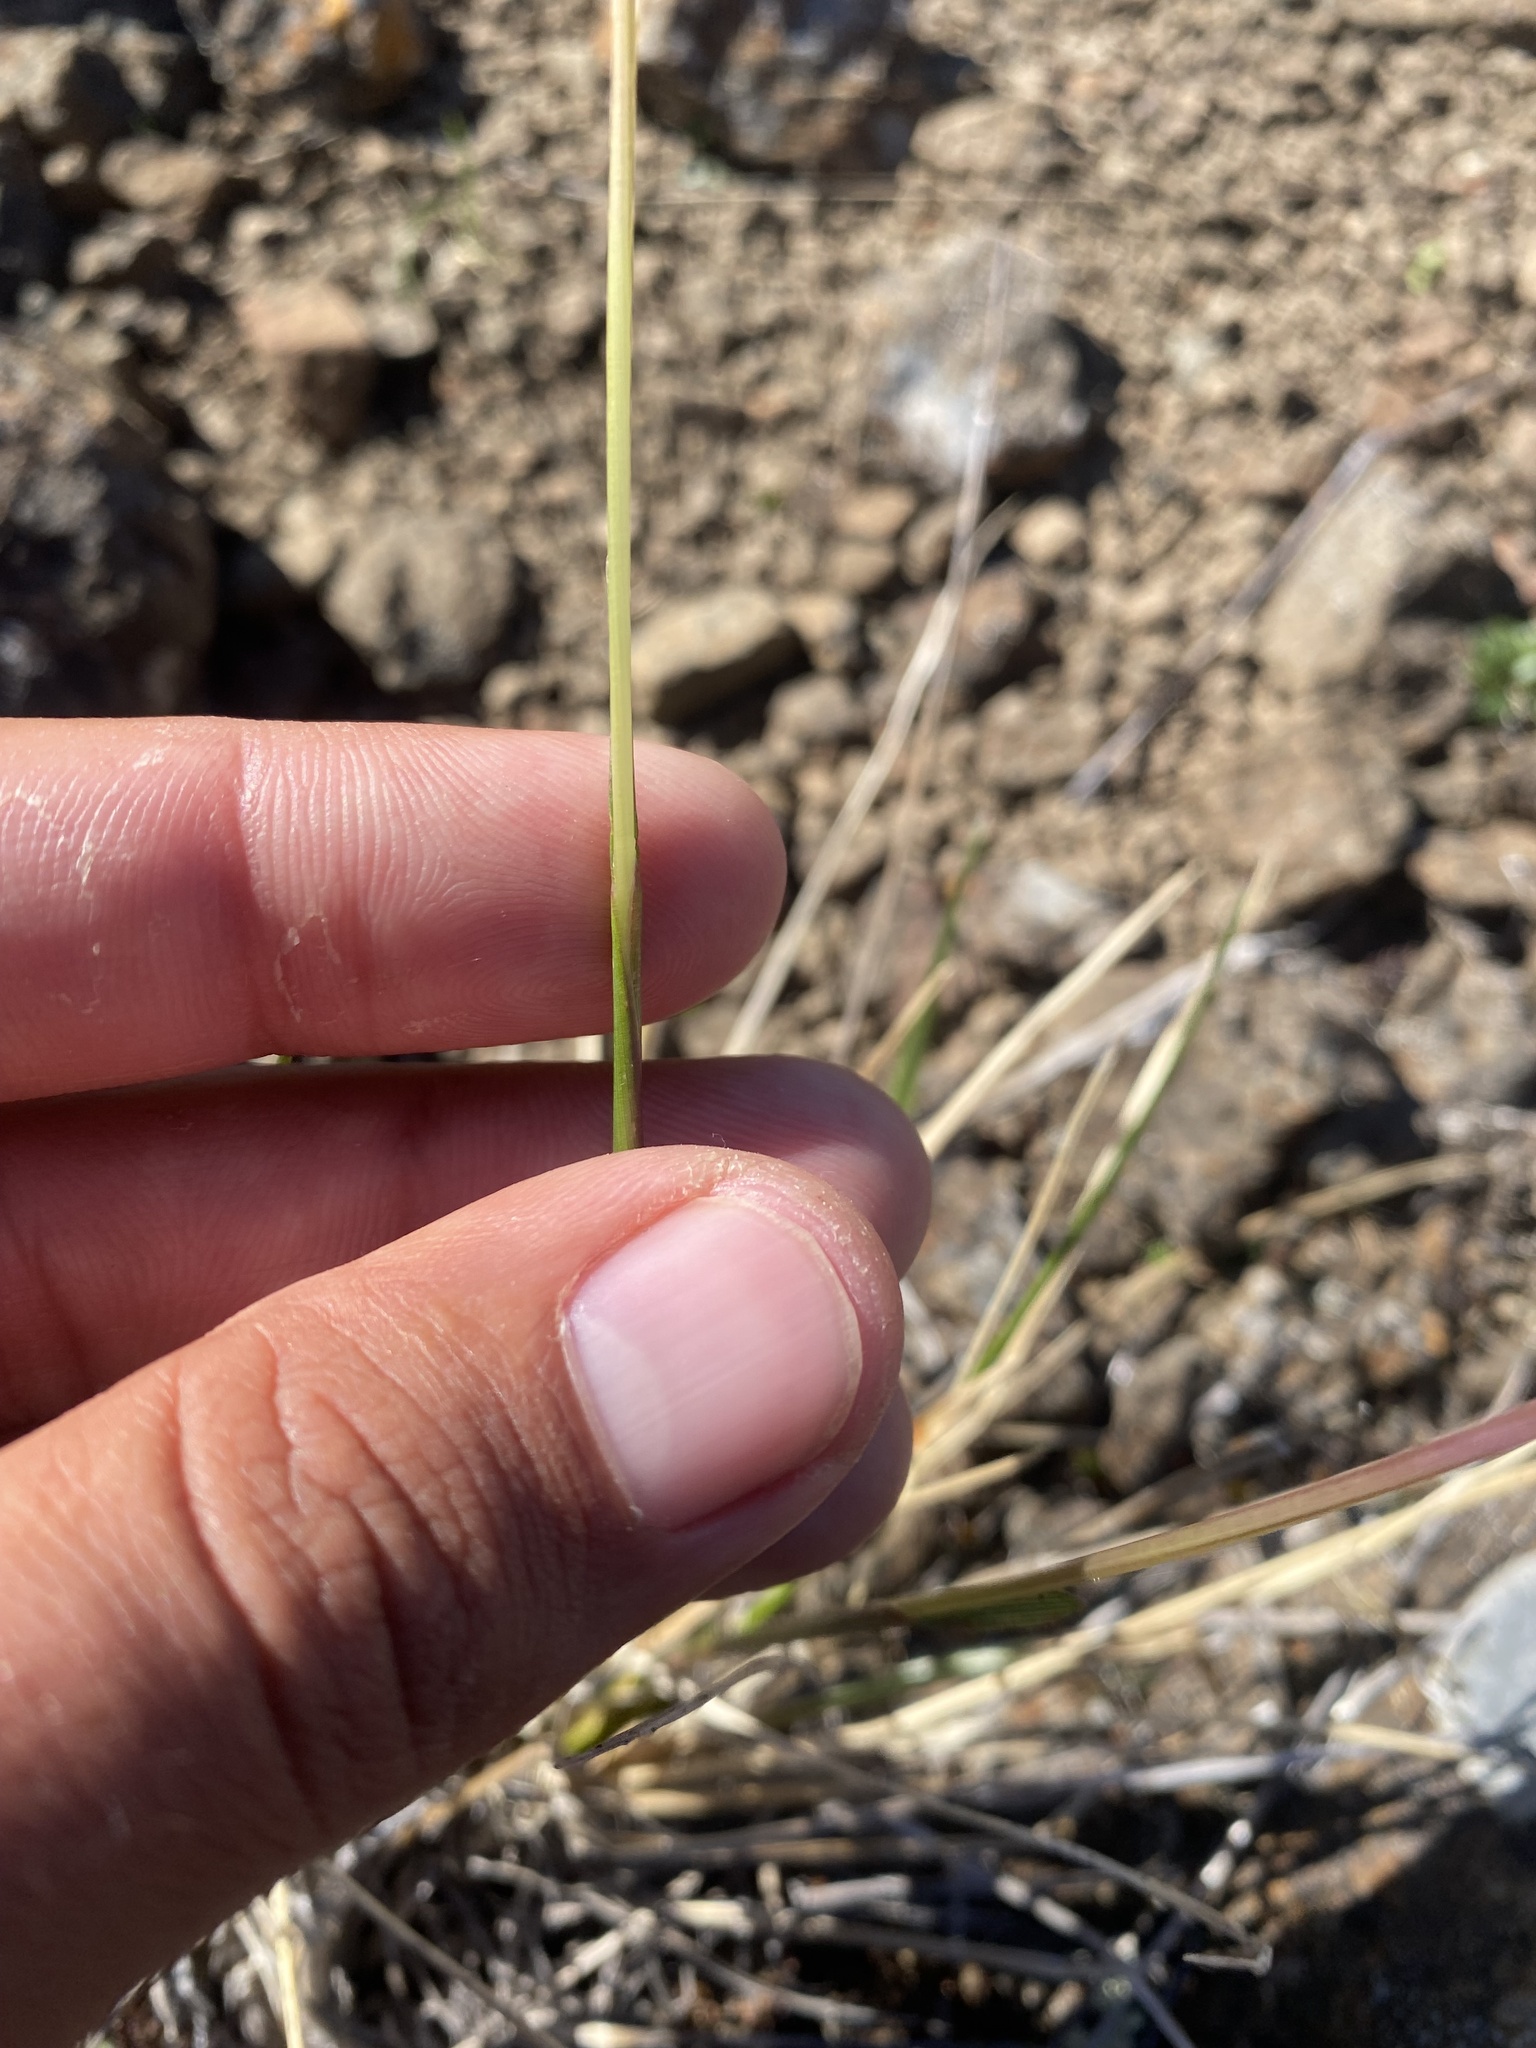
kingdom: Plantae
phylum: Tracheophyta
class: Liliopsida
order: Poales
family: Poaceae
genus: Deschampsia
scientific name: Deschampsia cespitosa
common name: Tufted hair-grass
